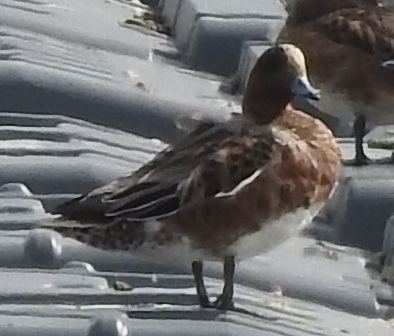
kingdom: Animalia
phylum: Chordata
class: Aves
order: Anseriformes
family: Anatidae
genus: Mareca
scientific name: Mareca penelope
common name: Eurasian wigeon
